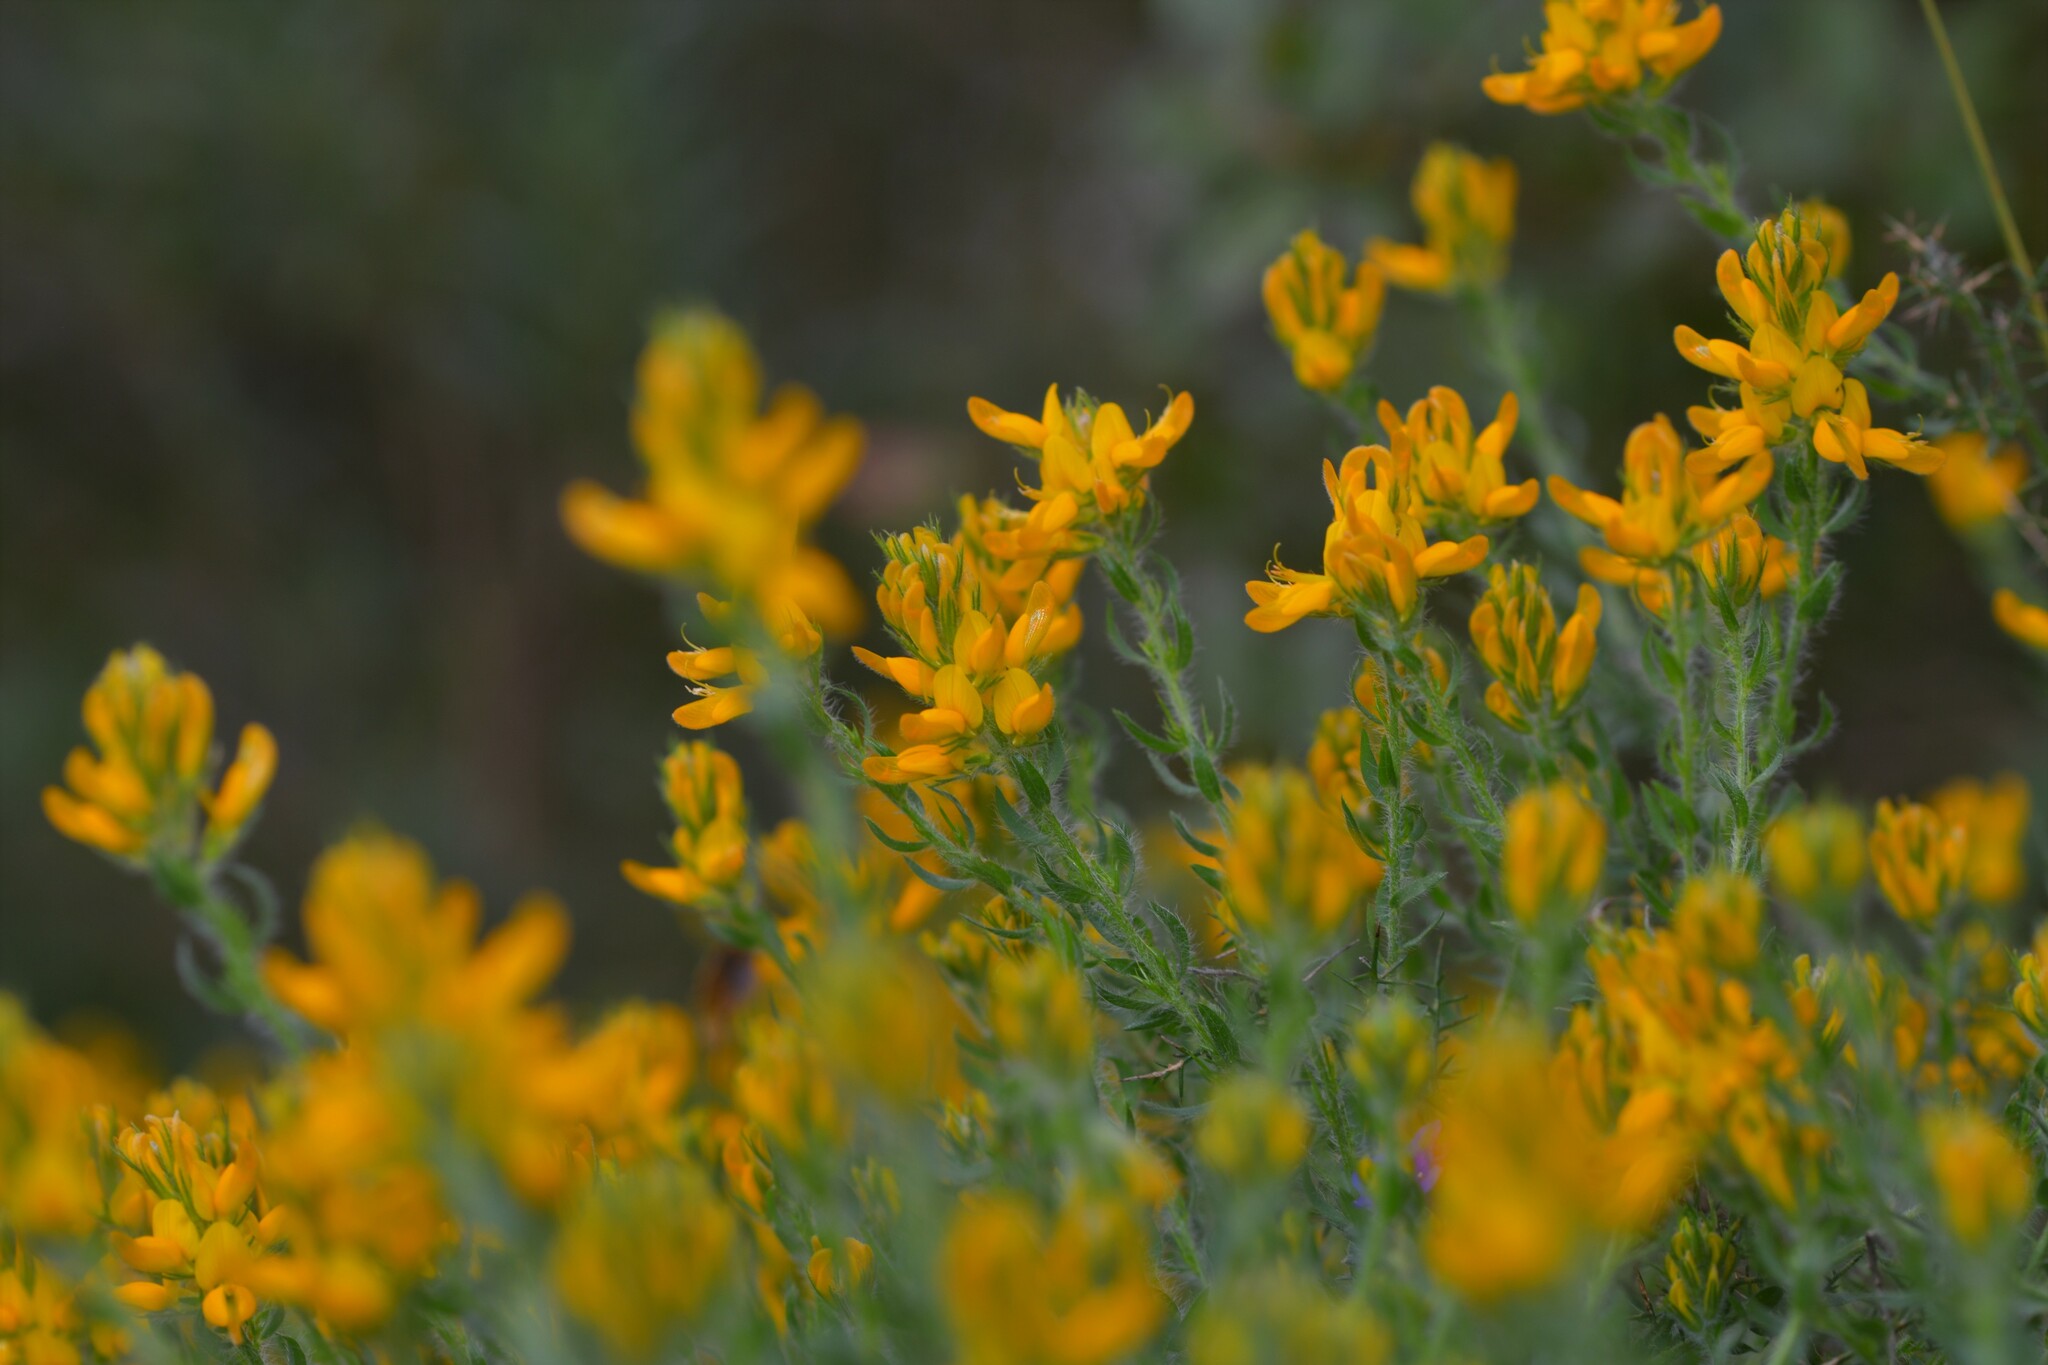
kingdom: Plantae
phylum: Tracheophyta
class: Magnoliopsida
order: Fabales
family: Fabaceae
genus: Genista
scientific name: Genista tournefortii
